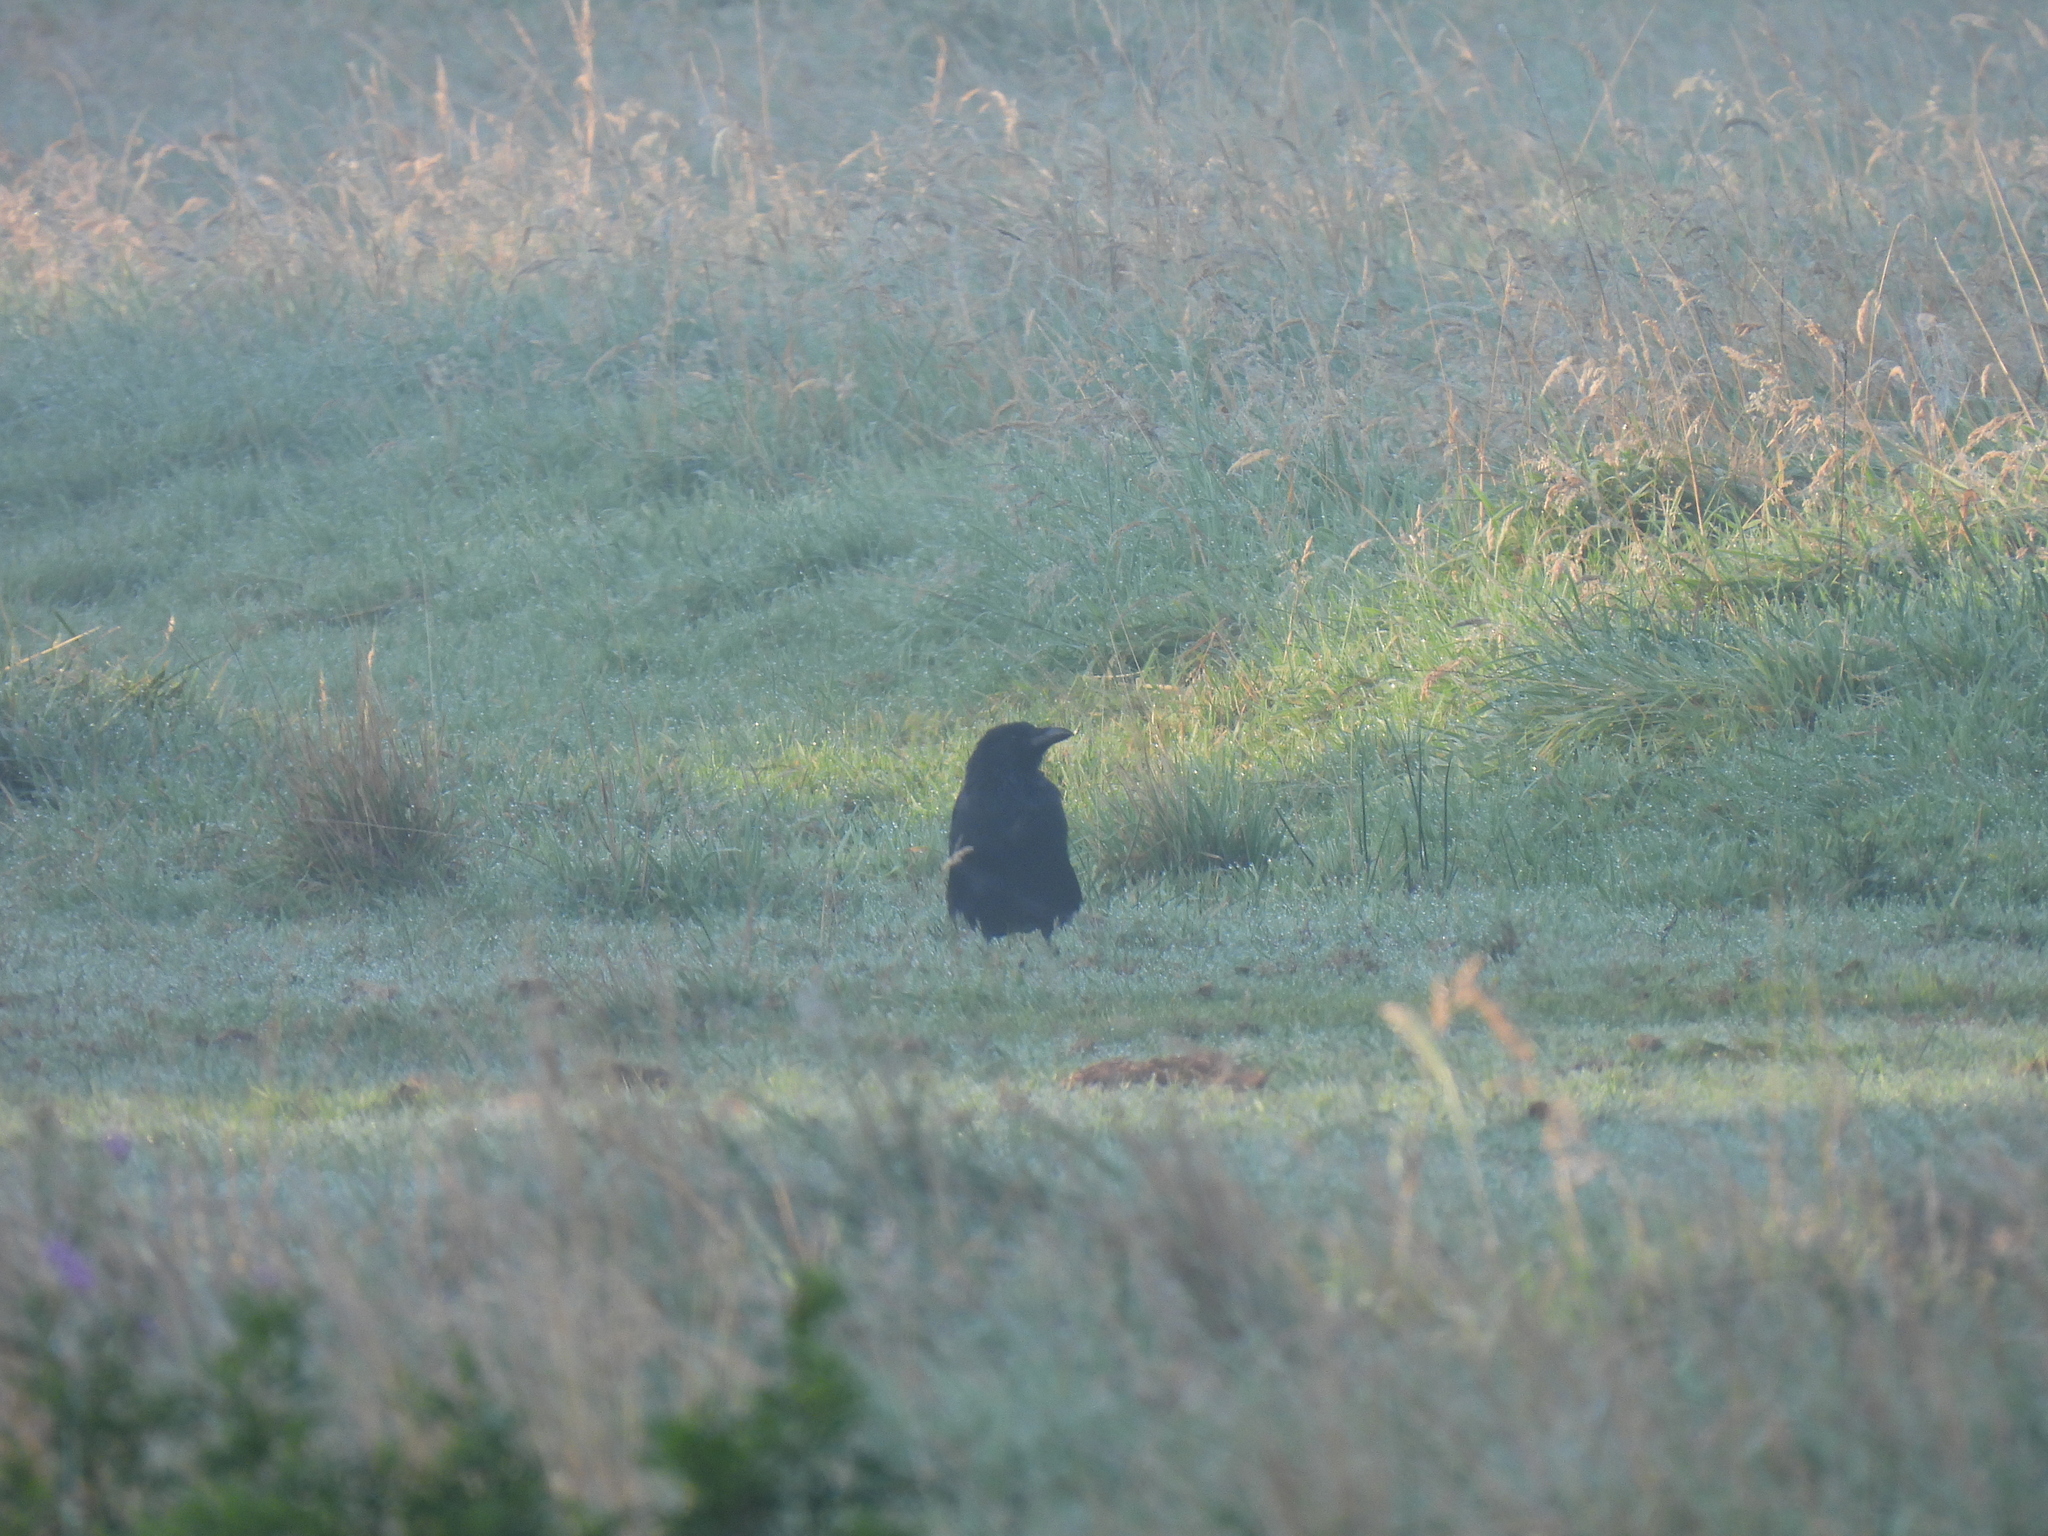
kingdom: Animalia
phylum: Chordata
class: Aves
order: Passeriformes
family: Corvidae
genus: Corvus
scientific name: Corvus corone
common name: Carrion crow
